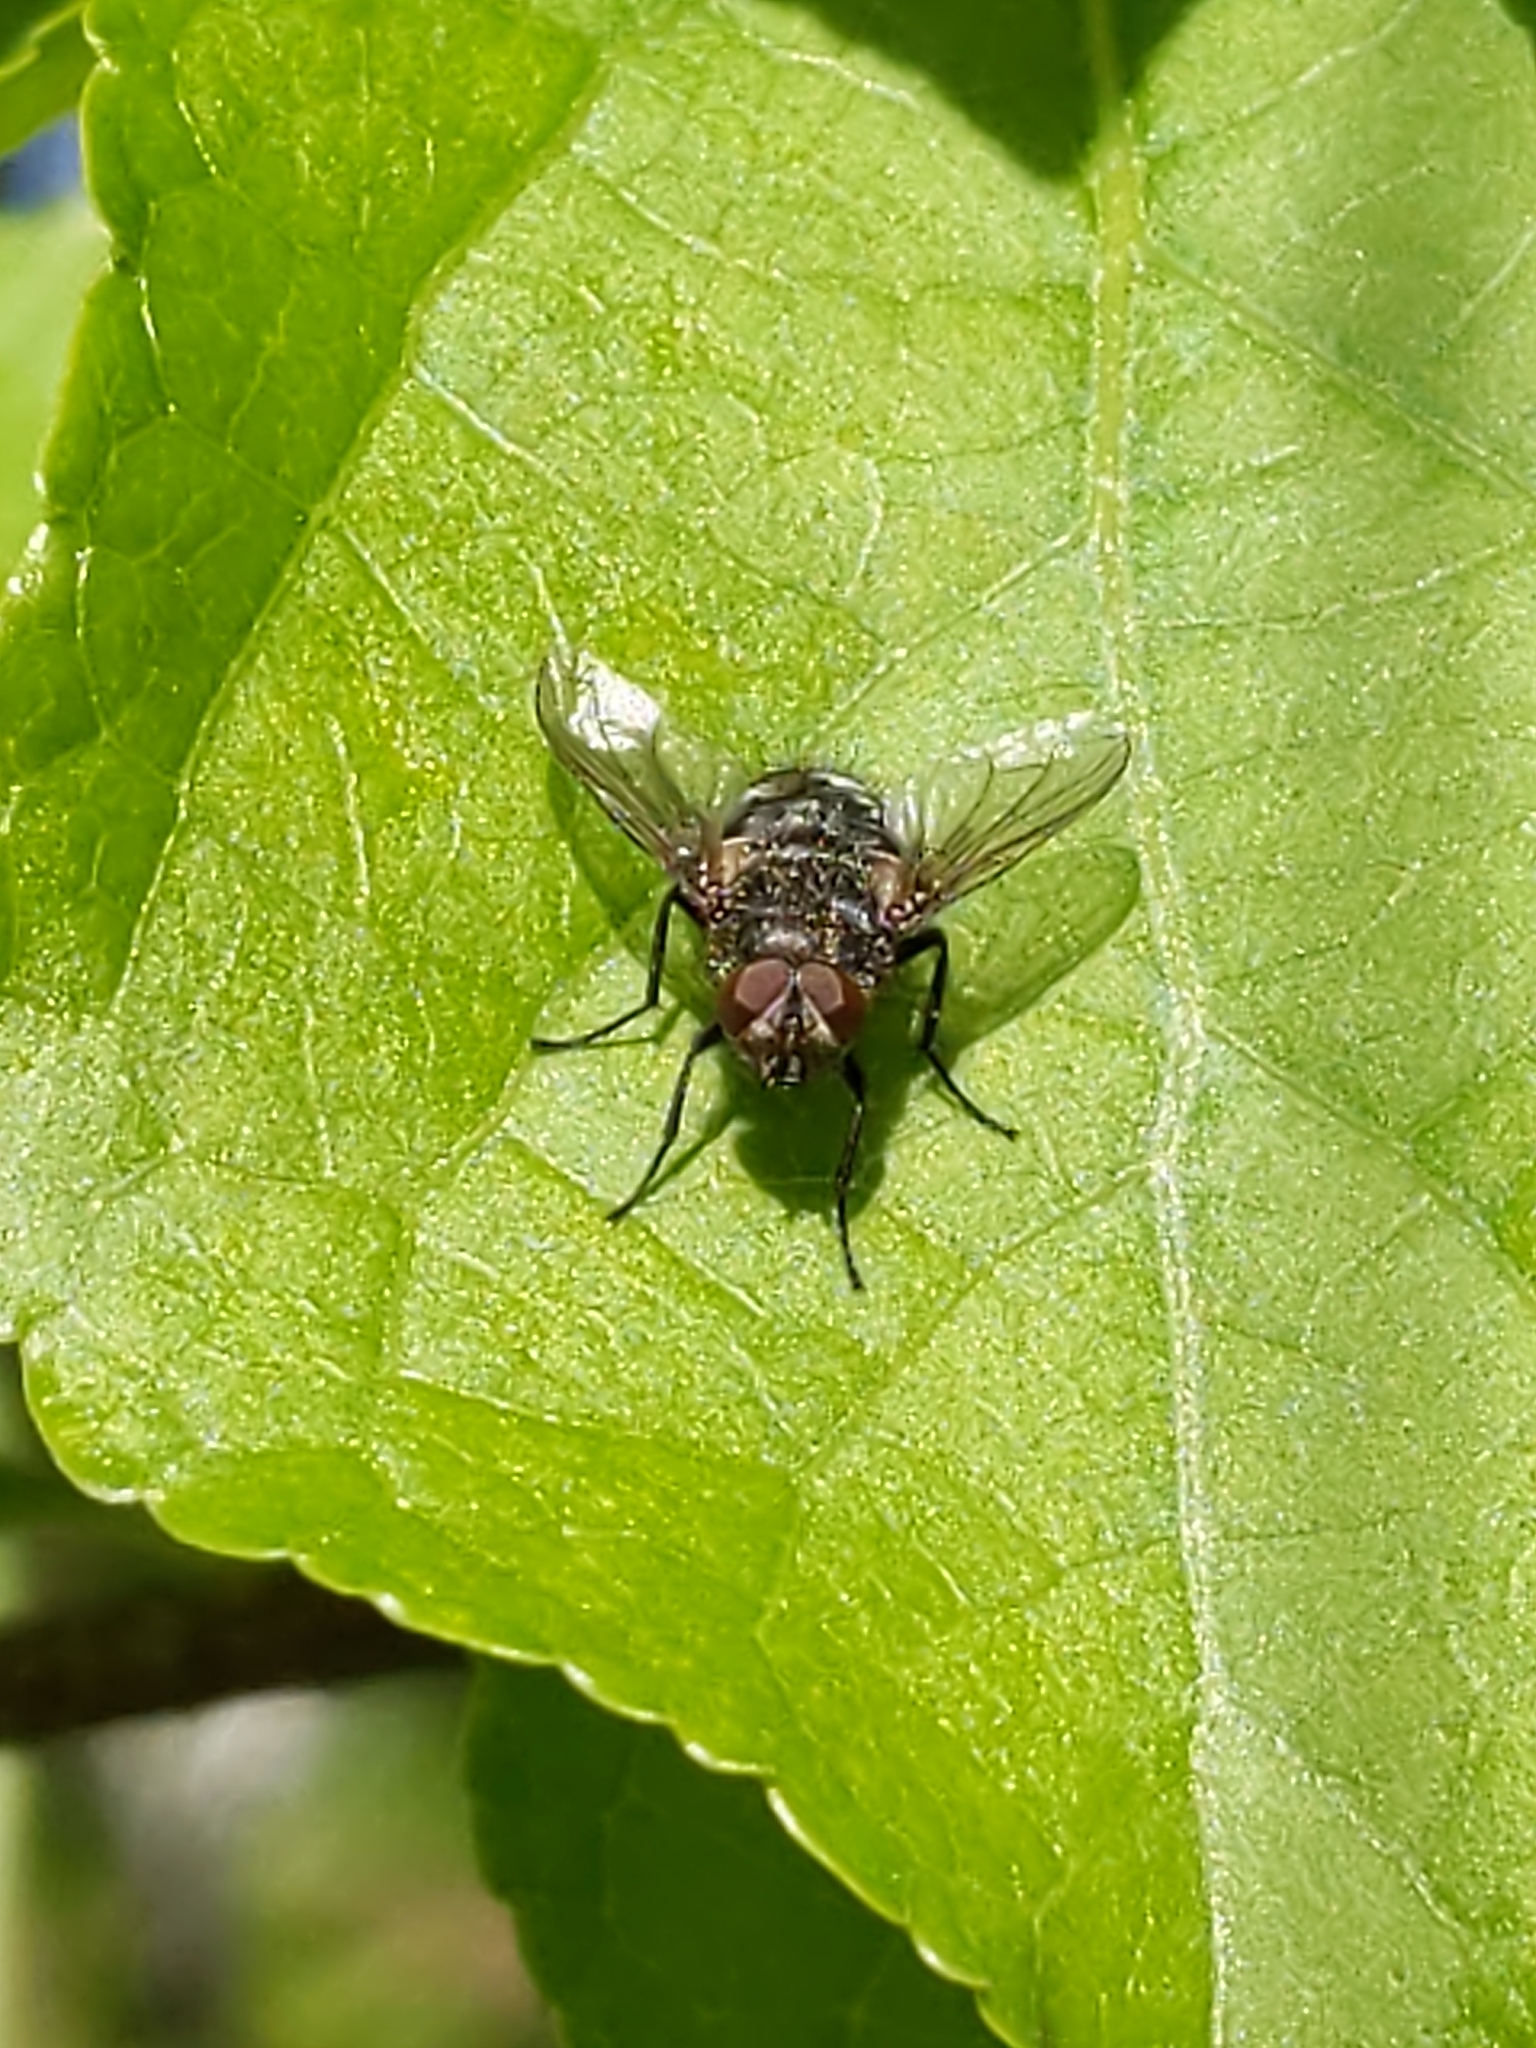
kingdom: Animalia
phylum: Arthropoda
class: Insecta
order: Diptera
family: Polleniidae
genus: Pollenia
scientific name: Pollenia
